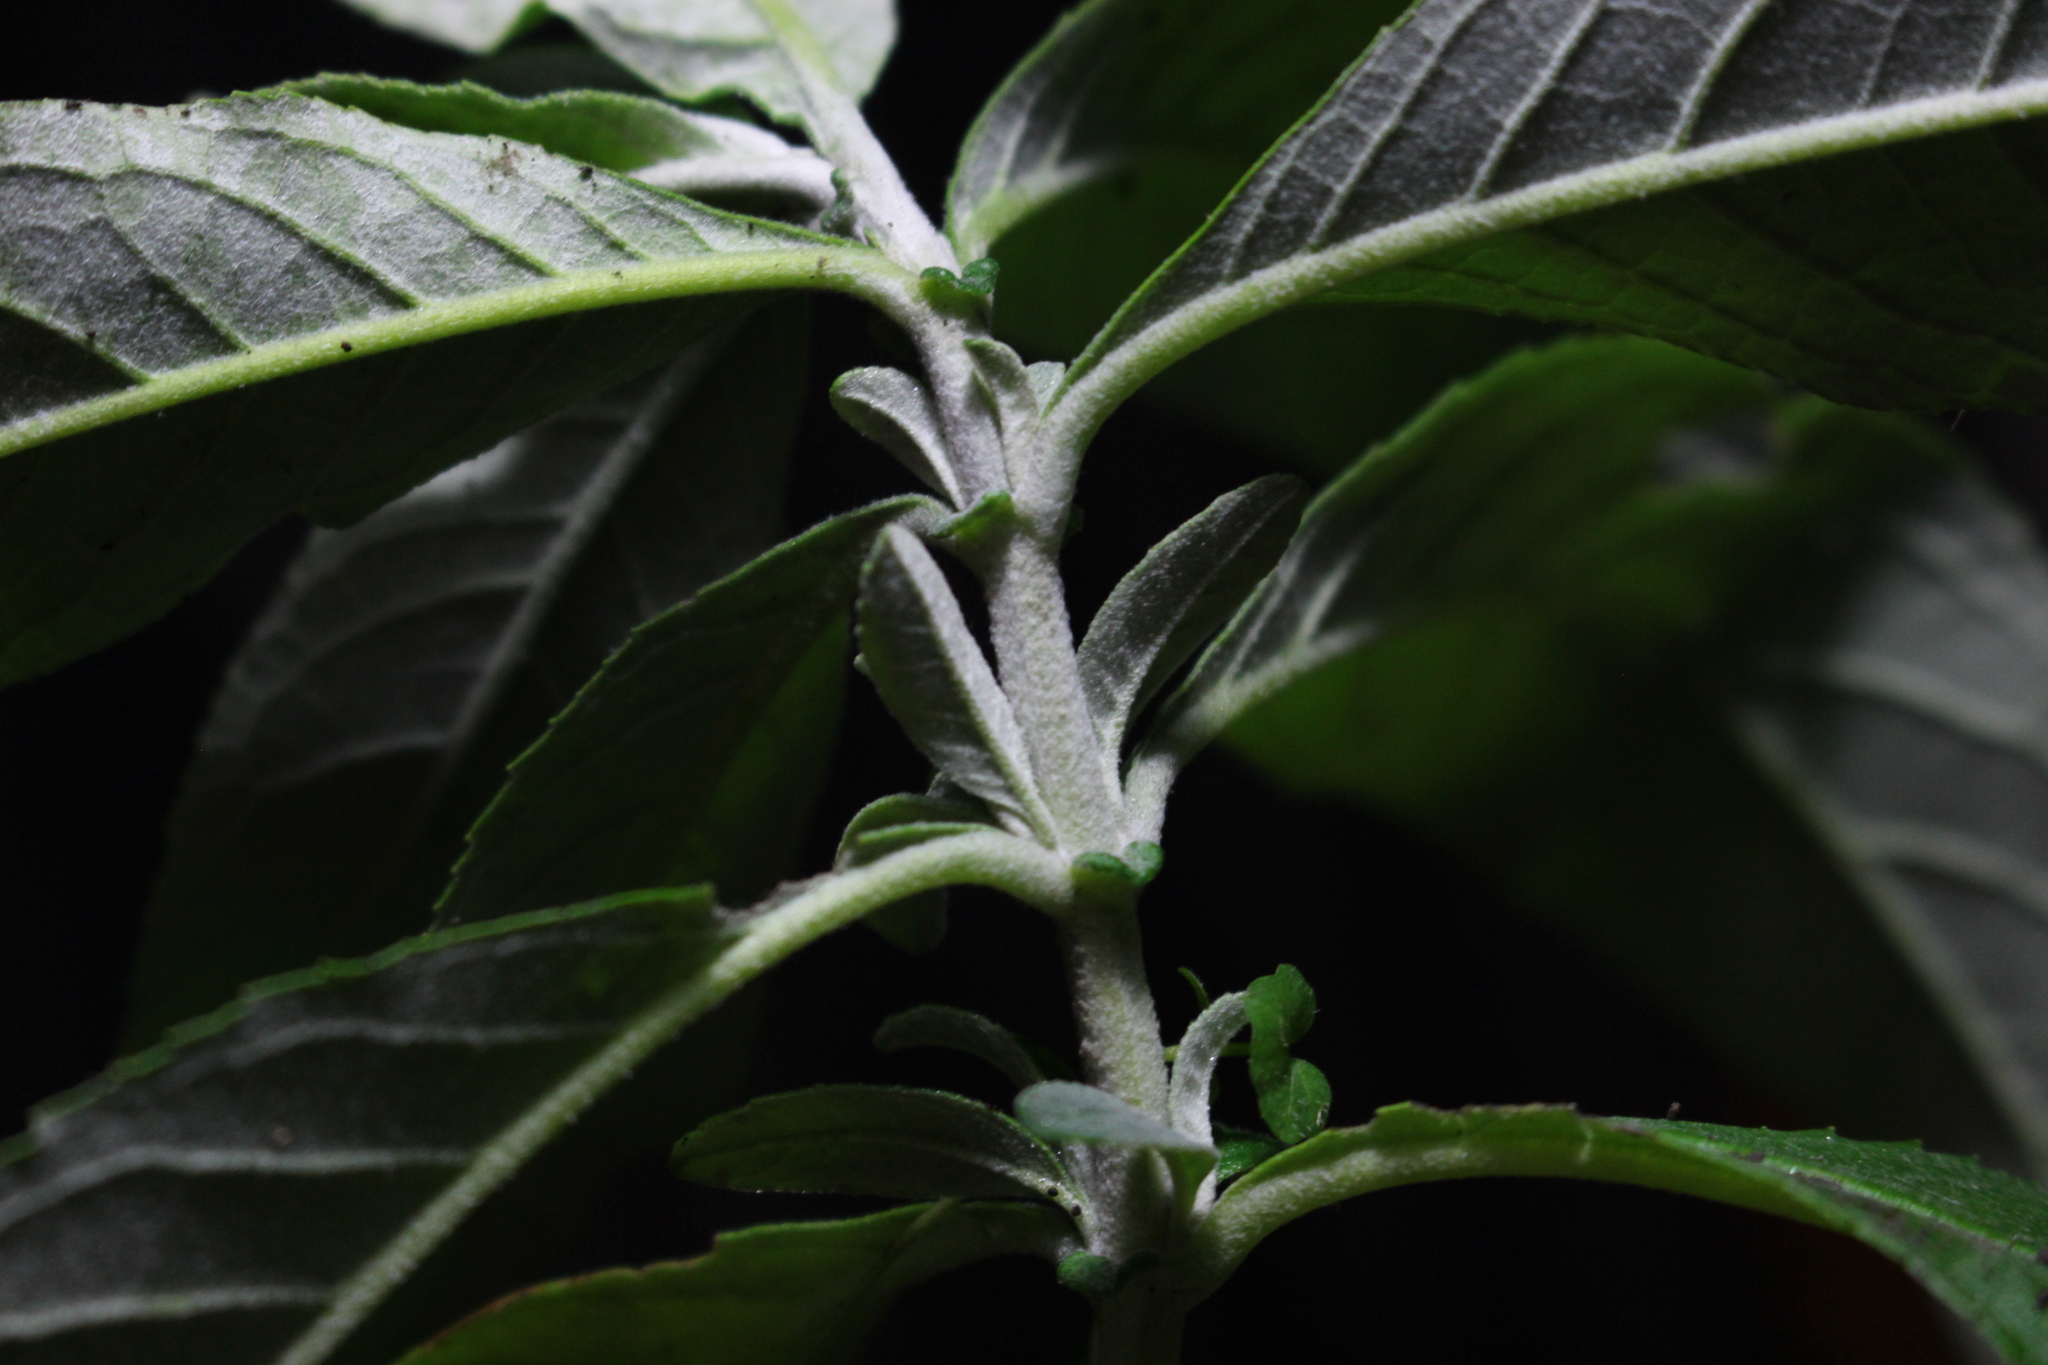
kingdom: Plantae
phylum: Tracheophyta
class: Magnoliopsida
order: Lamiales
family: Scrophulariaceae
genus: Buddleja
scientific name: Buddleja davidii
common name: Butterfly-bush
